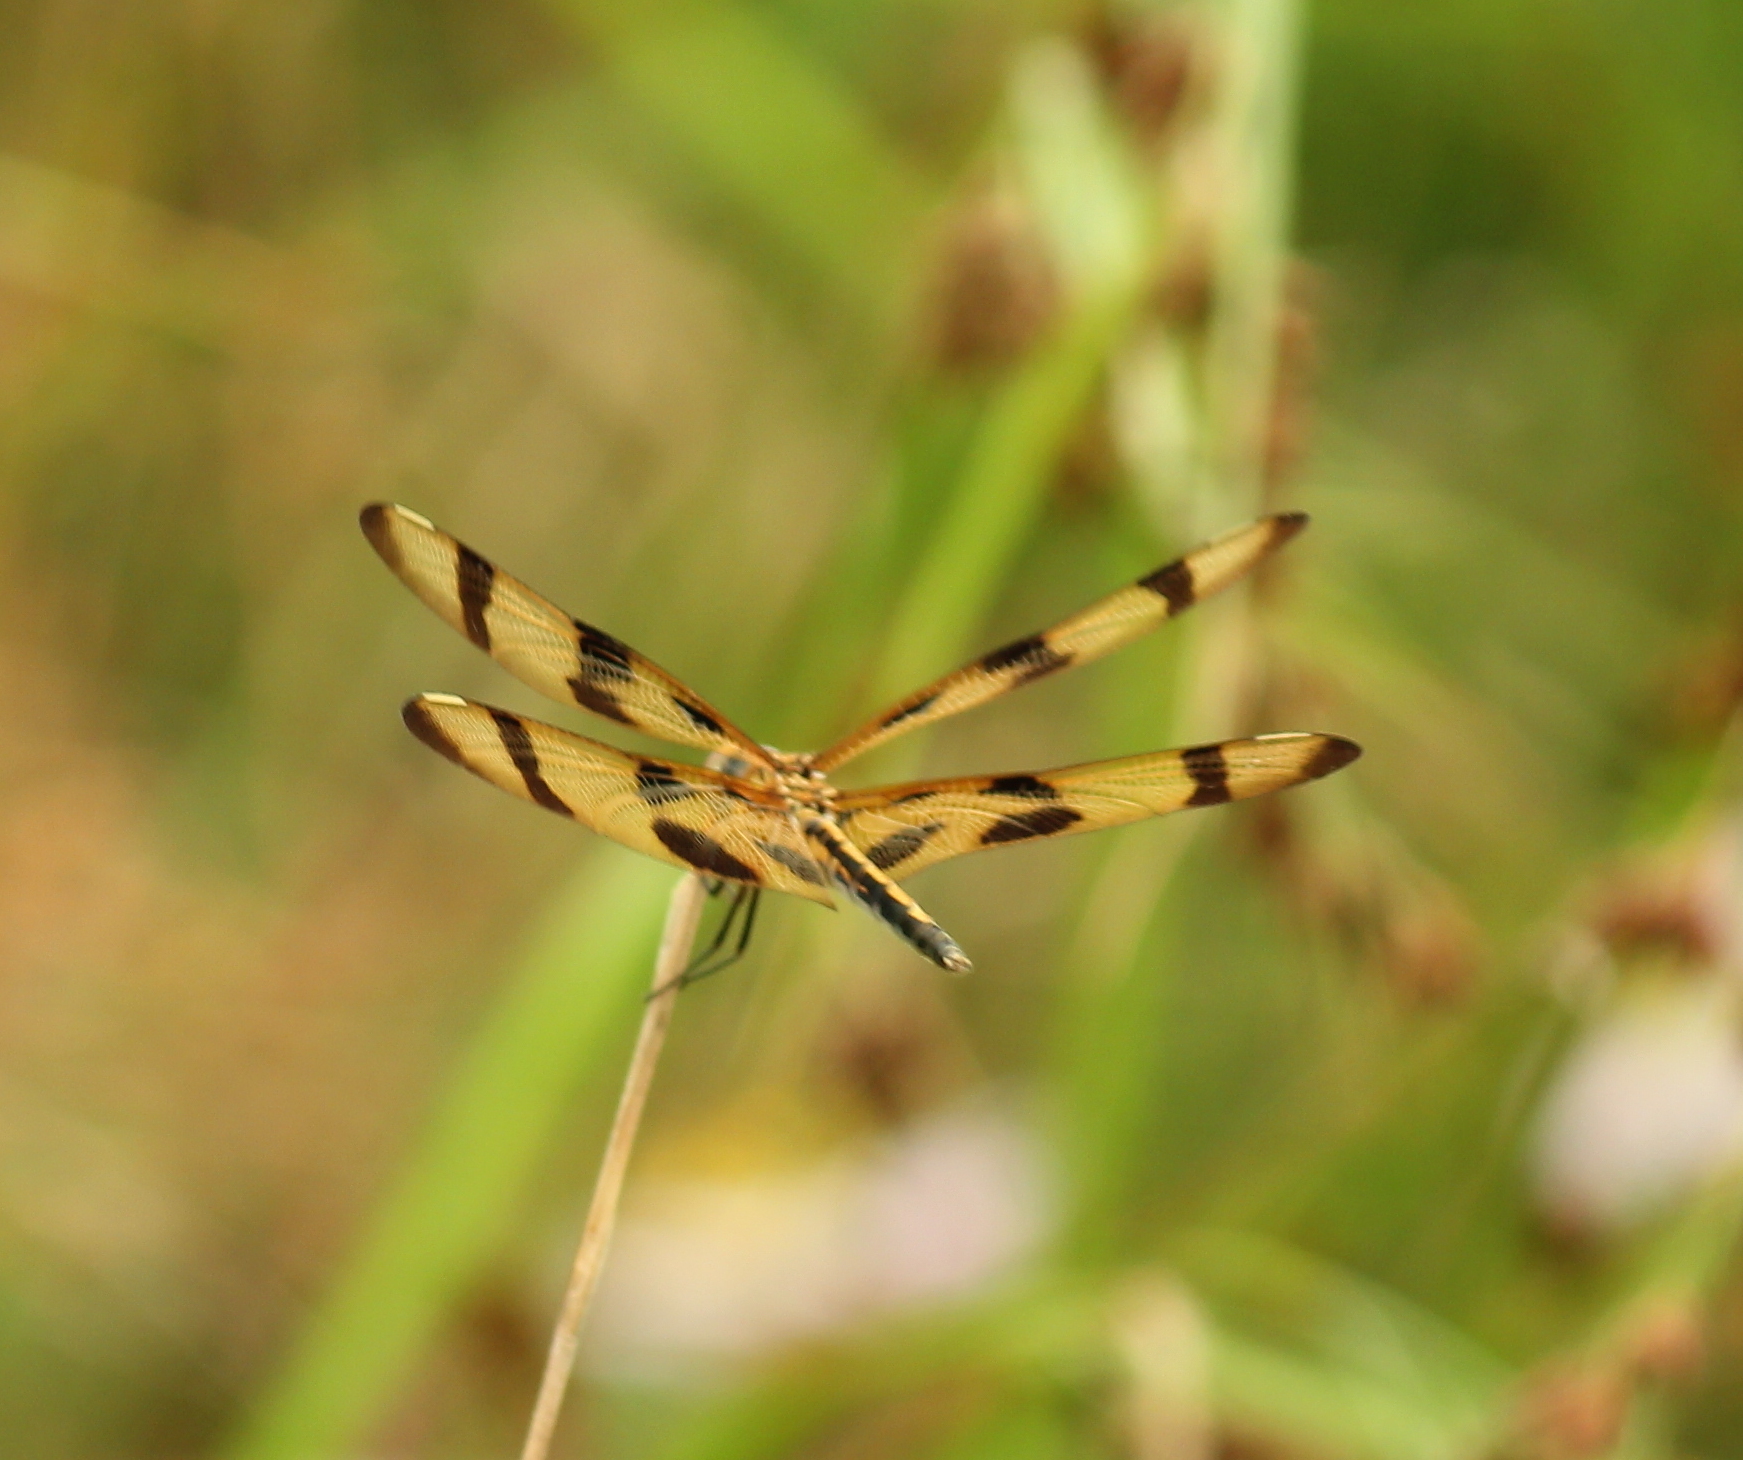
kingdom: Animalia
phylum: Arthropoda
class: Insecta
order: Odonata
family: Libellulidae
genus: Celithemis
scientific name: Celithemis eponina
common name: Halloween pennant
